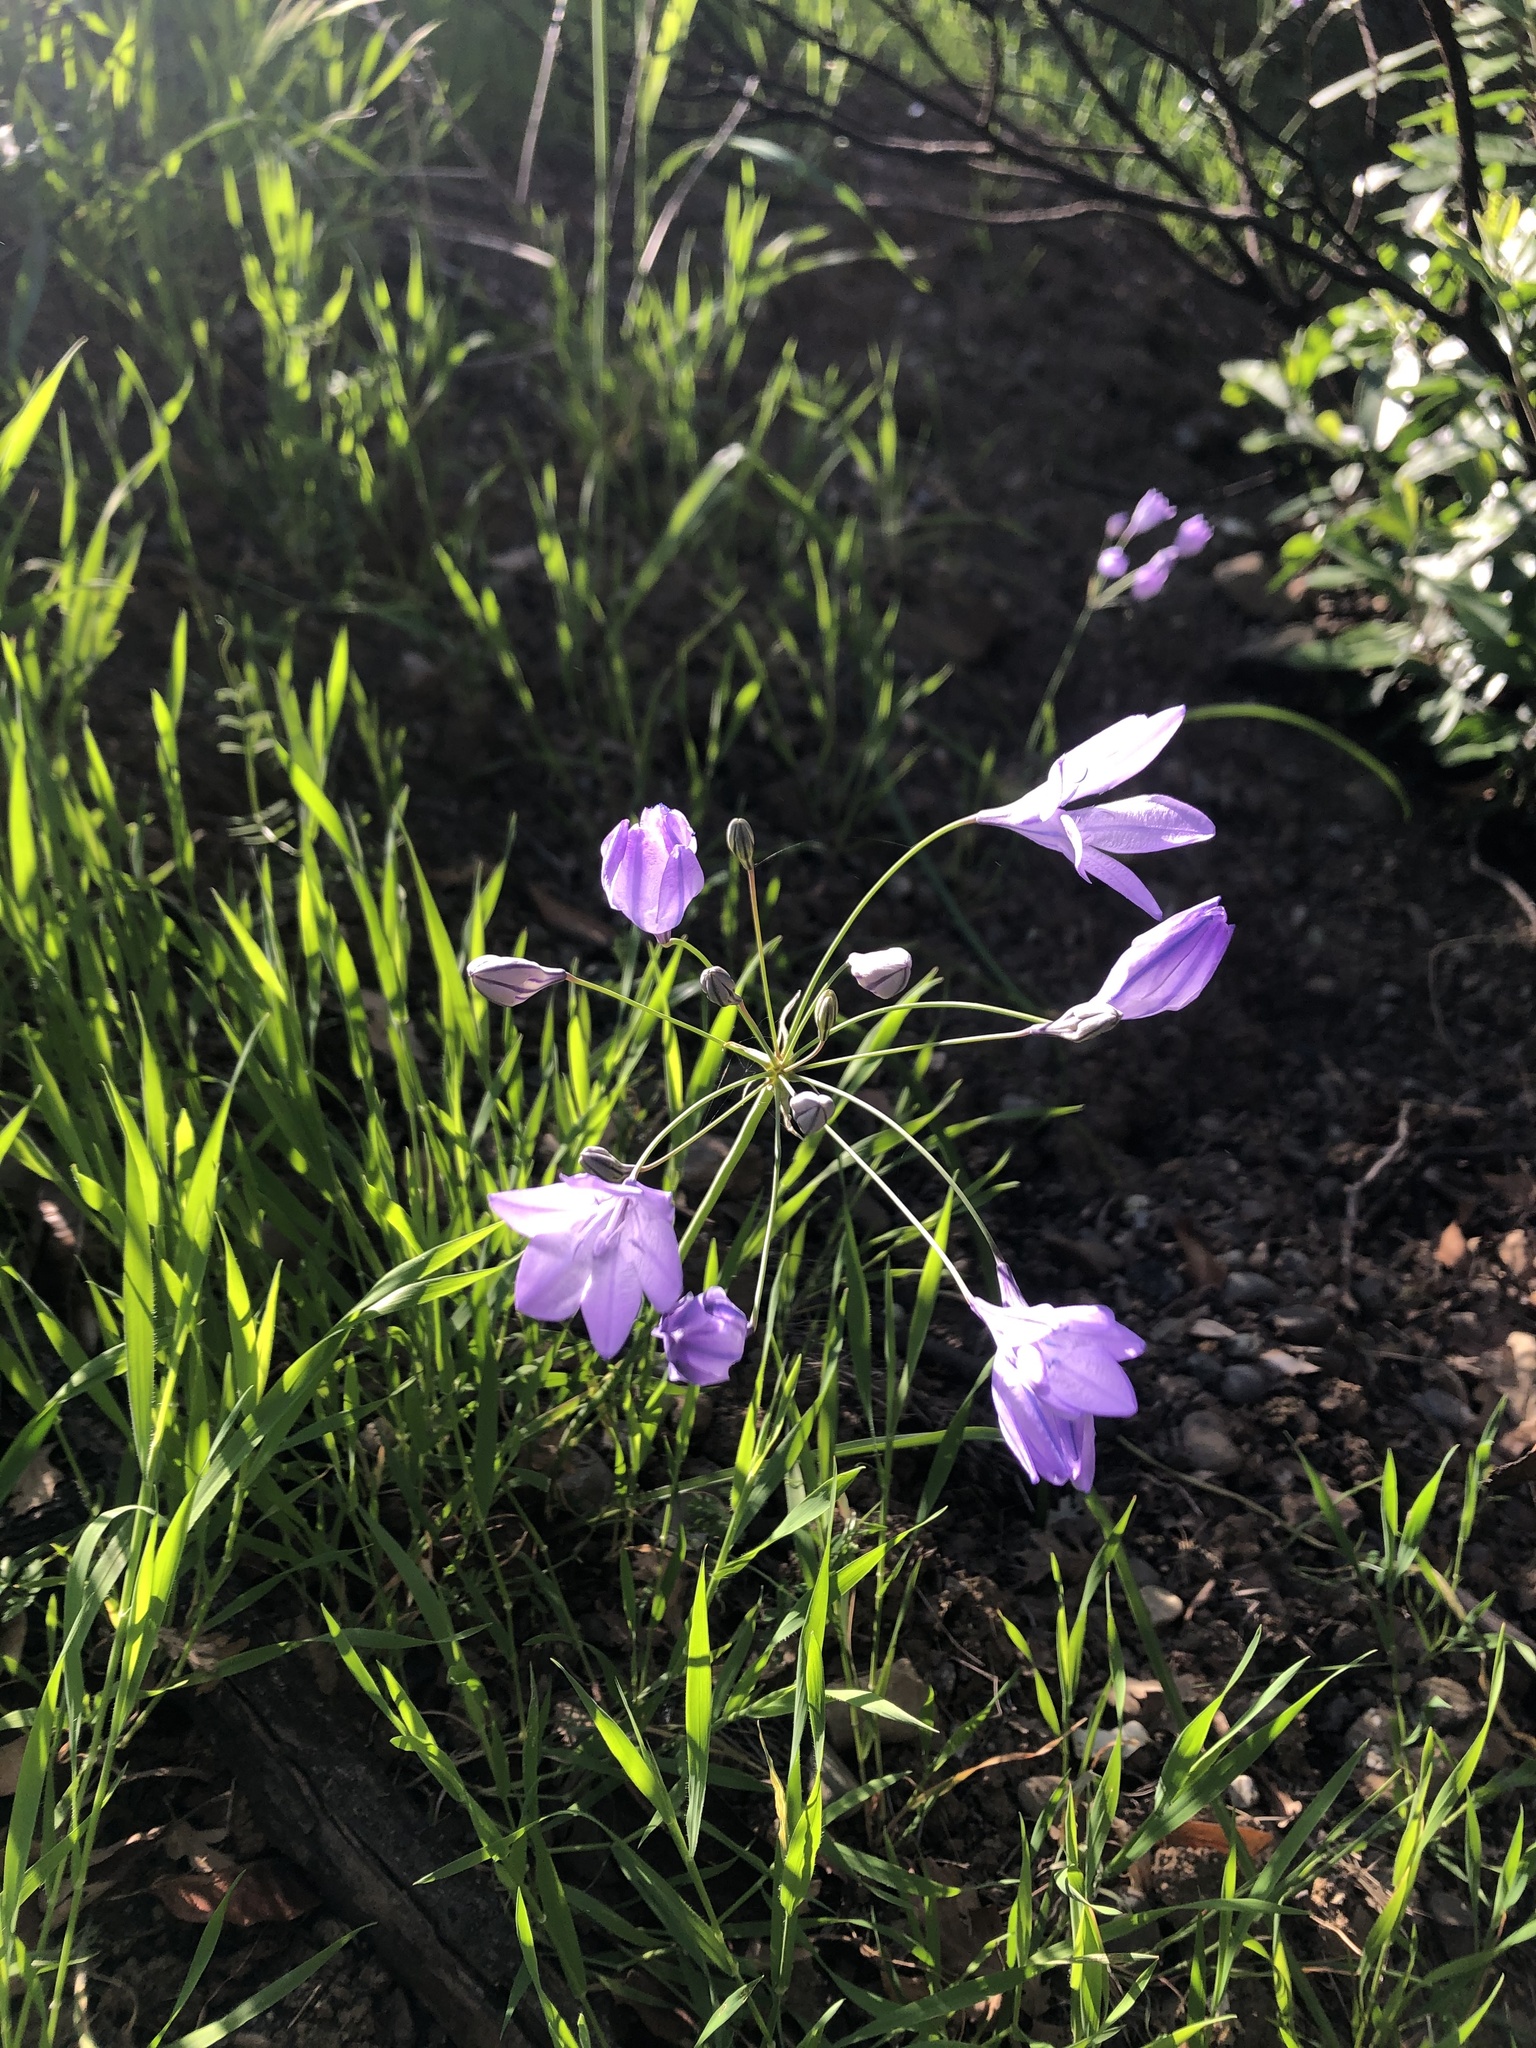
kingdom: Plantae
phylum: Tracheophyta
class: Liliopsida
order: Asparagales
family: Asparagaceae
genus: Triteleia
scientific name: Triteleia laxa
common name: Triplet-lily
